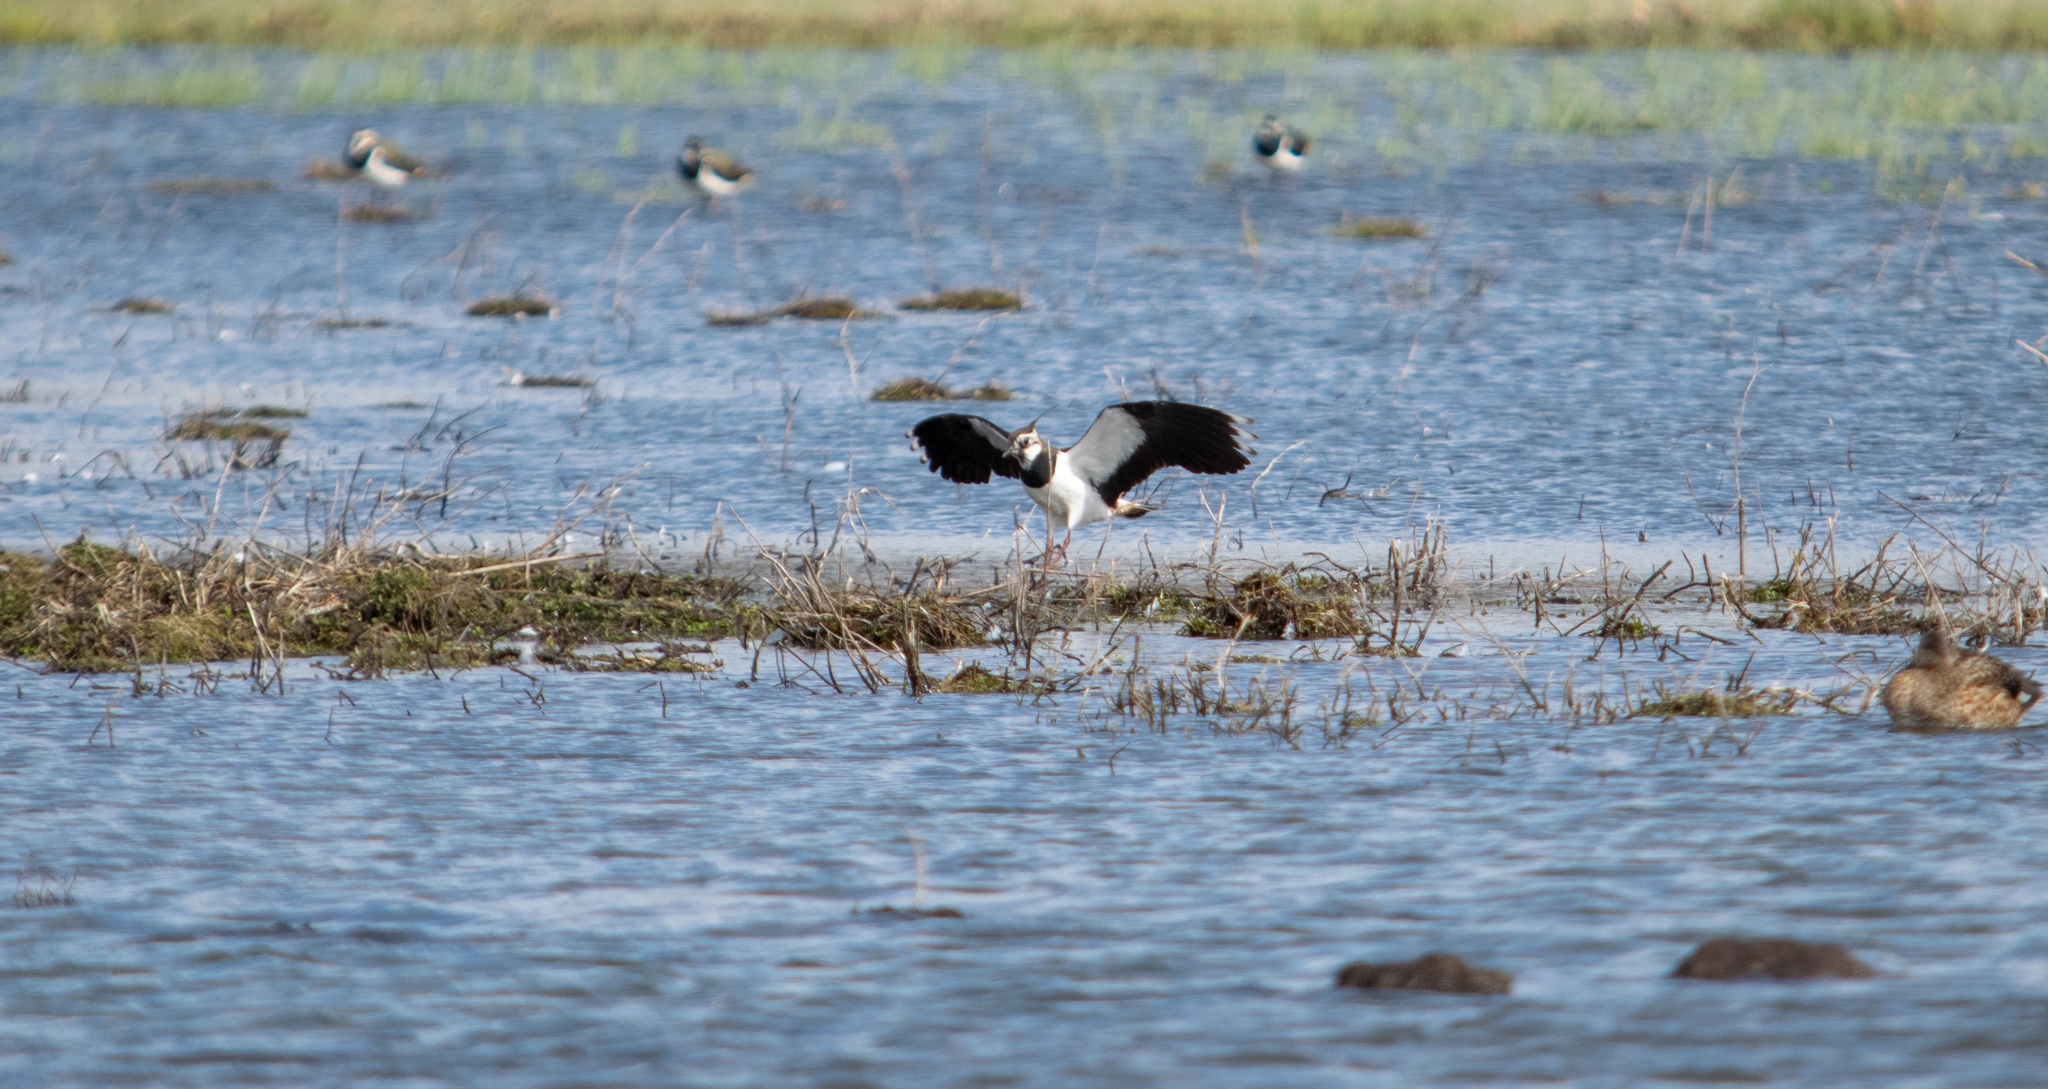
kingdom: Animalia
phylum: Chordata
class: Aves
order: Charadriiformes
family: Charadriidae
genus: Vanellus
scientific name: Vanellus vanellus
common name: Northern lapwing
